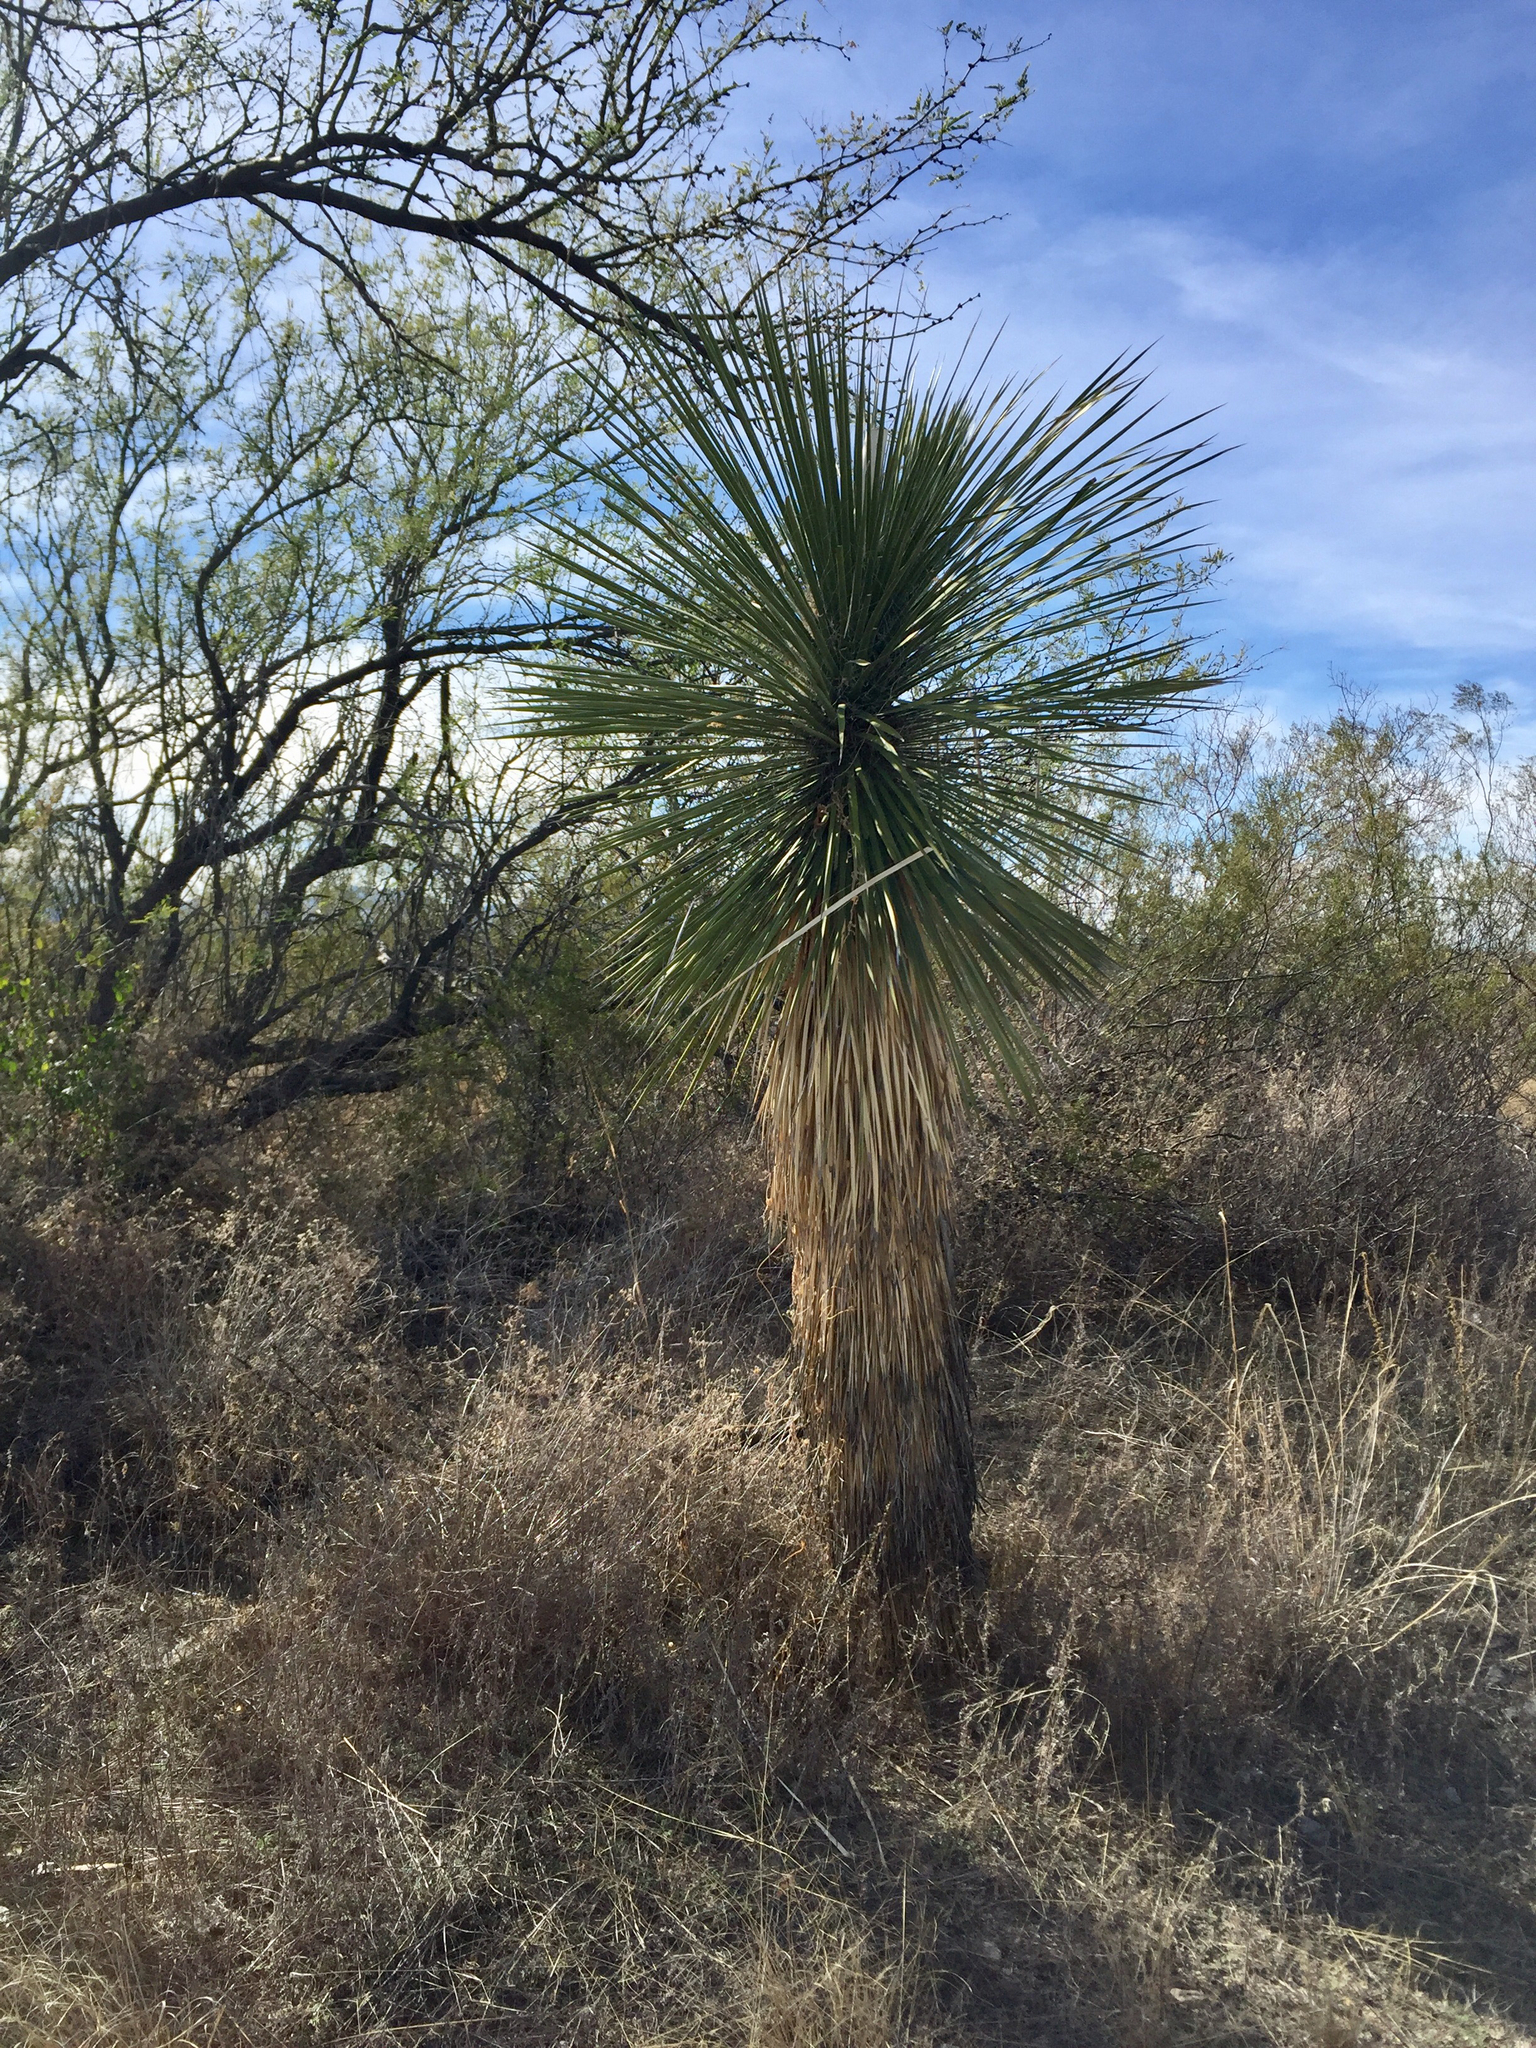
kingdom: Plantae
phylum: Tracheophyta
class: Liliopsida
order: Asparagales
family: Asparagaceae
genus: Yucca
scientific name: Yucca elata
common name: Palmella
